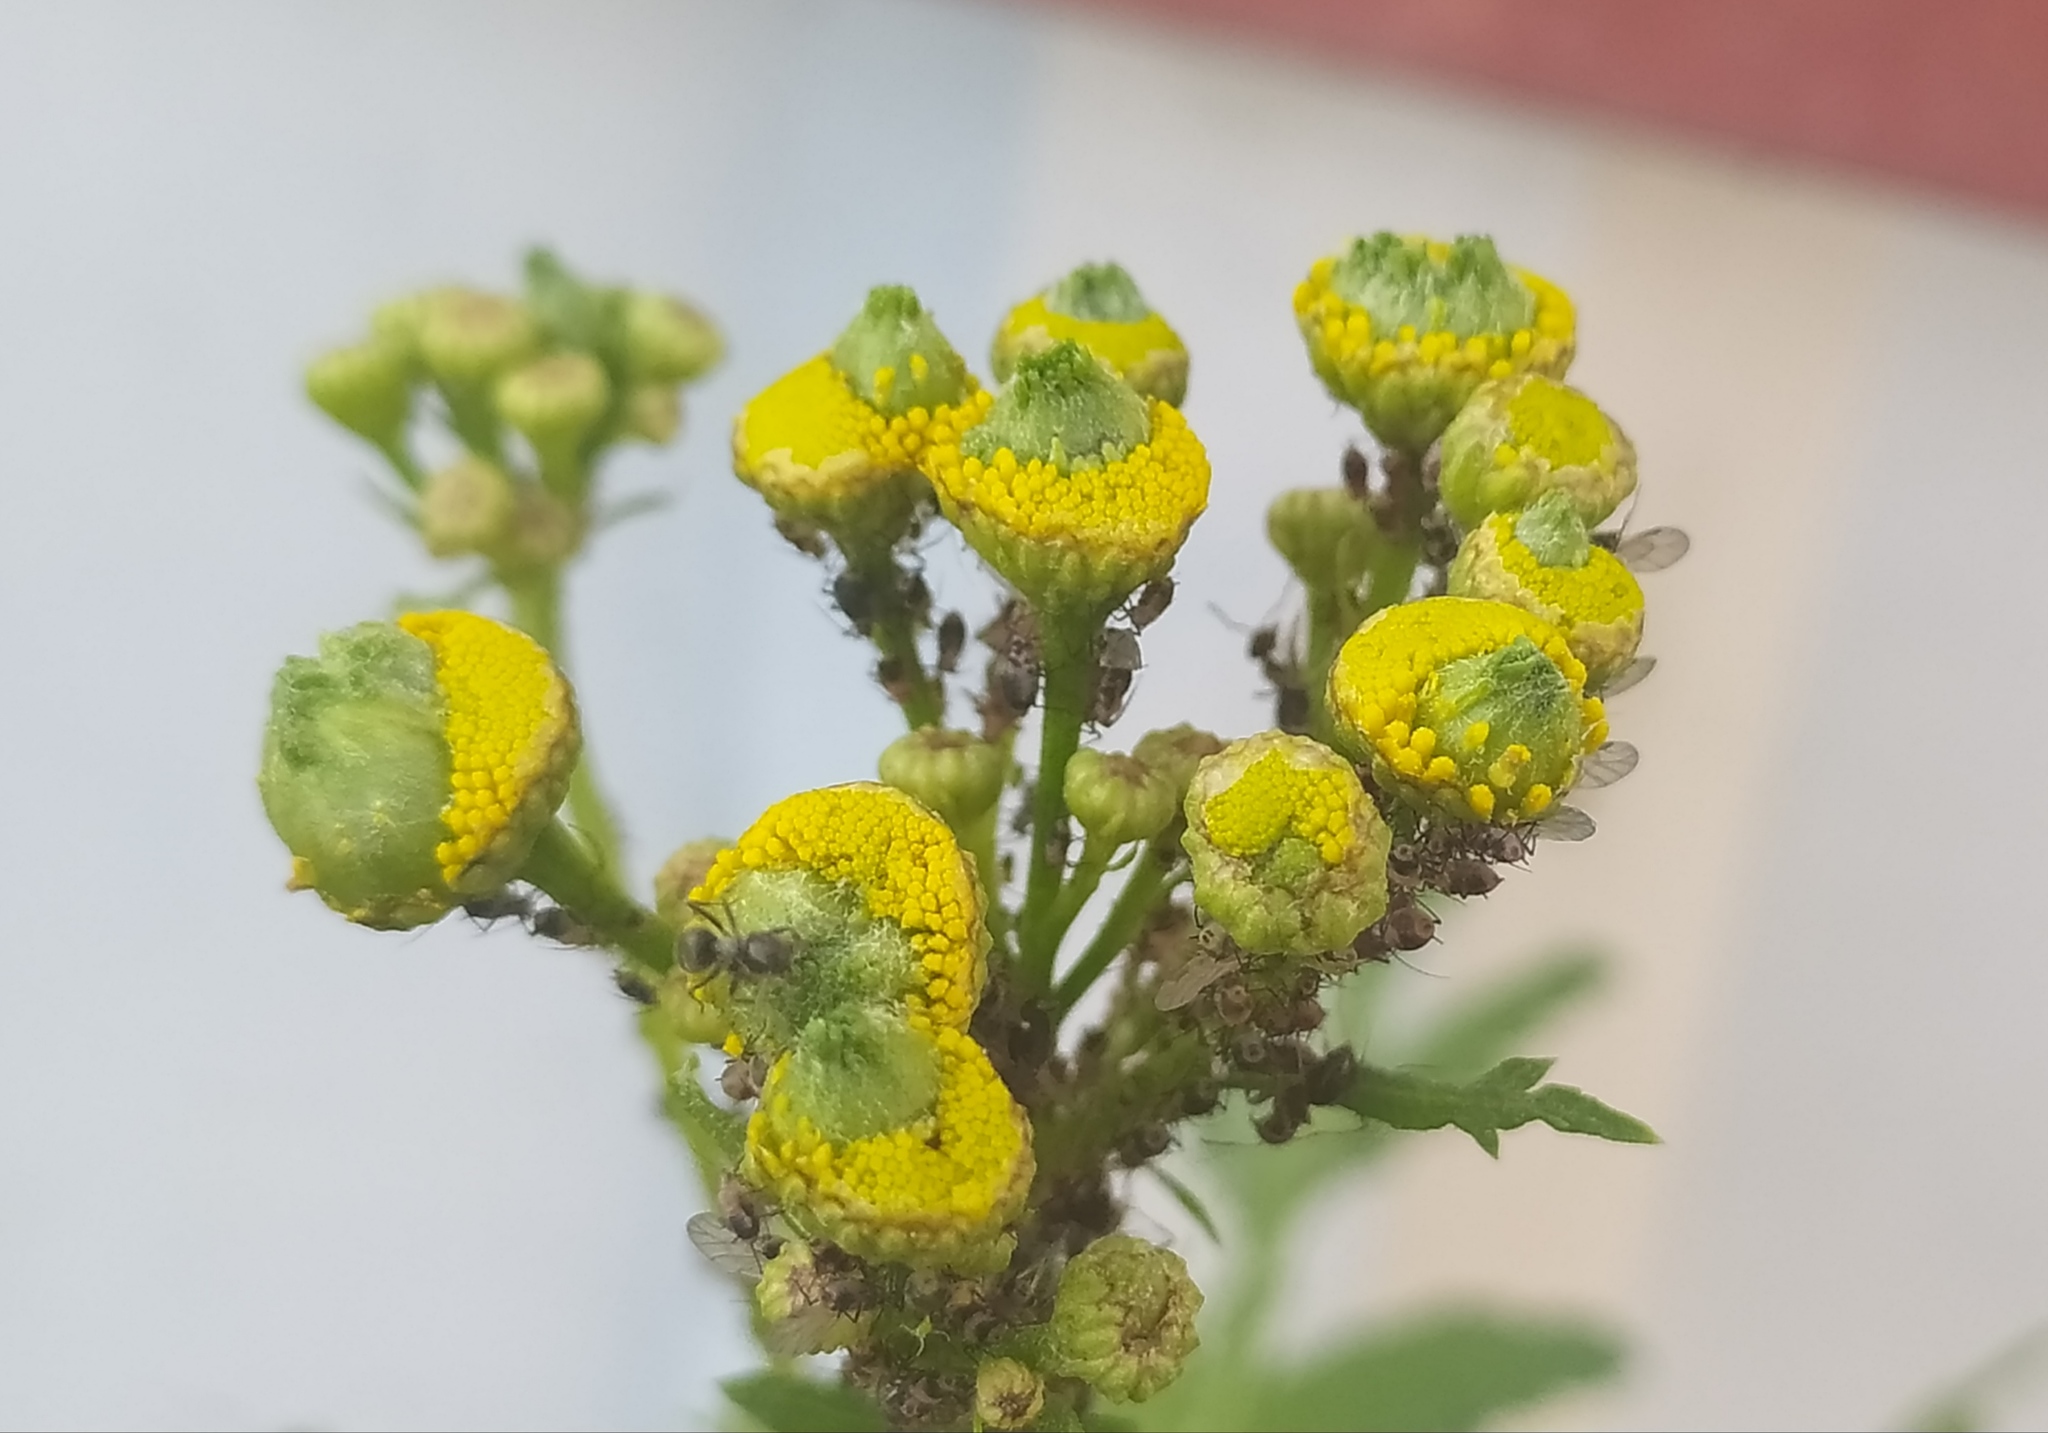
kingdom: Animalia
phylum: Arthropoda
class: Insecta
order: Diptera
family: Cecidomyiidae
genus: Rhopalomyia
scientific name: Rhopalomyia tanaceticolus
